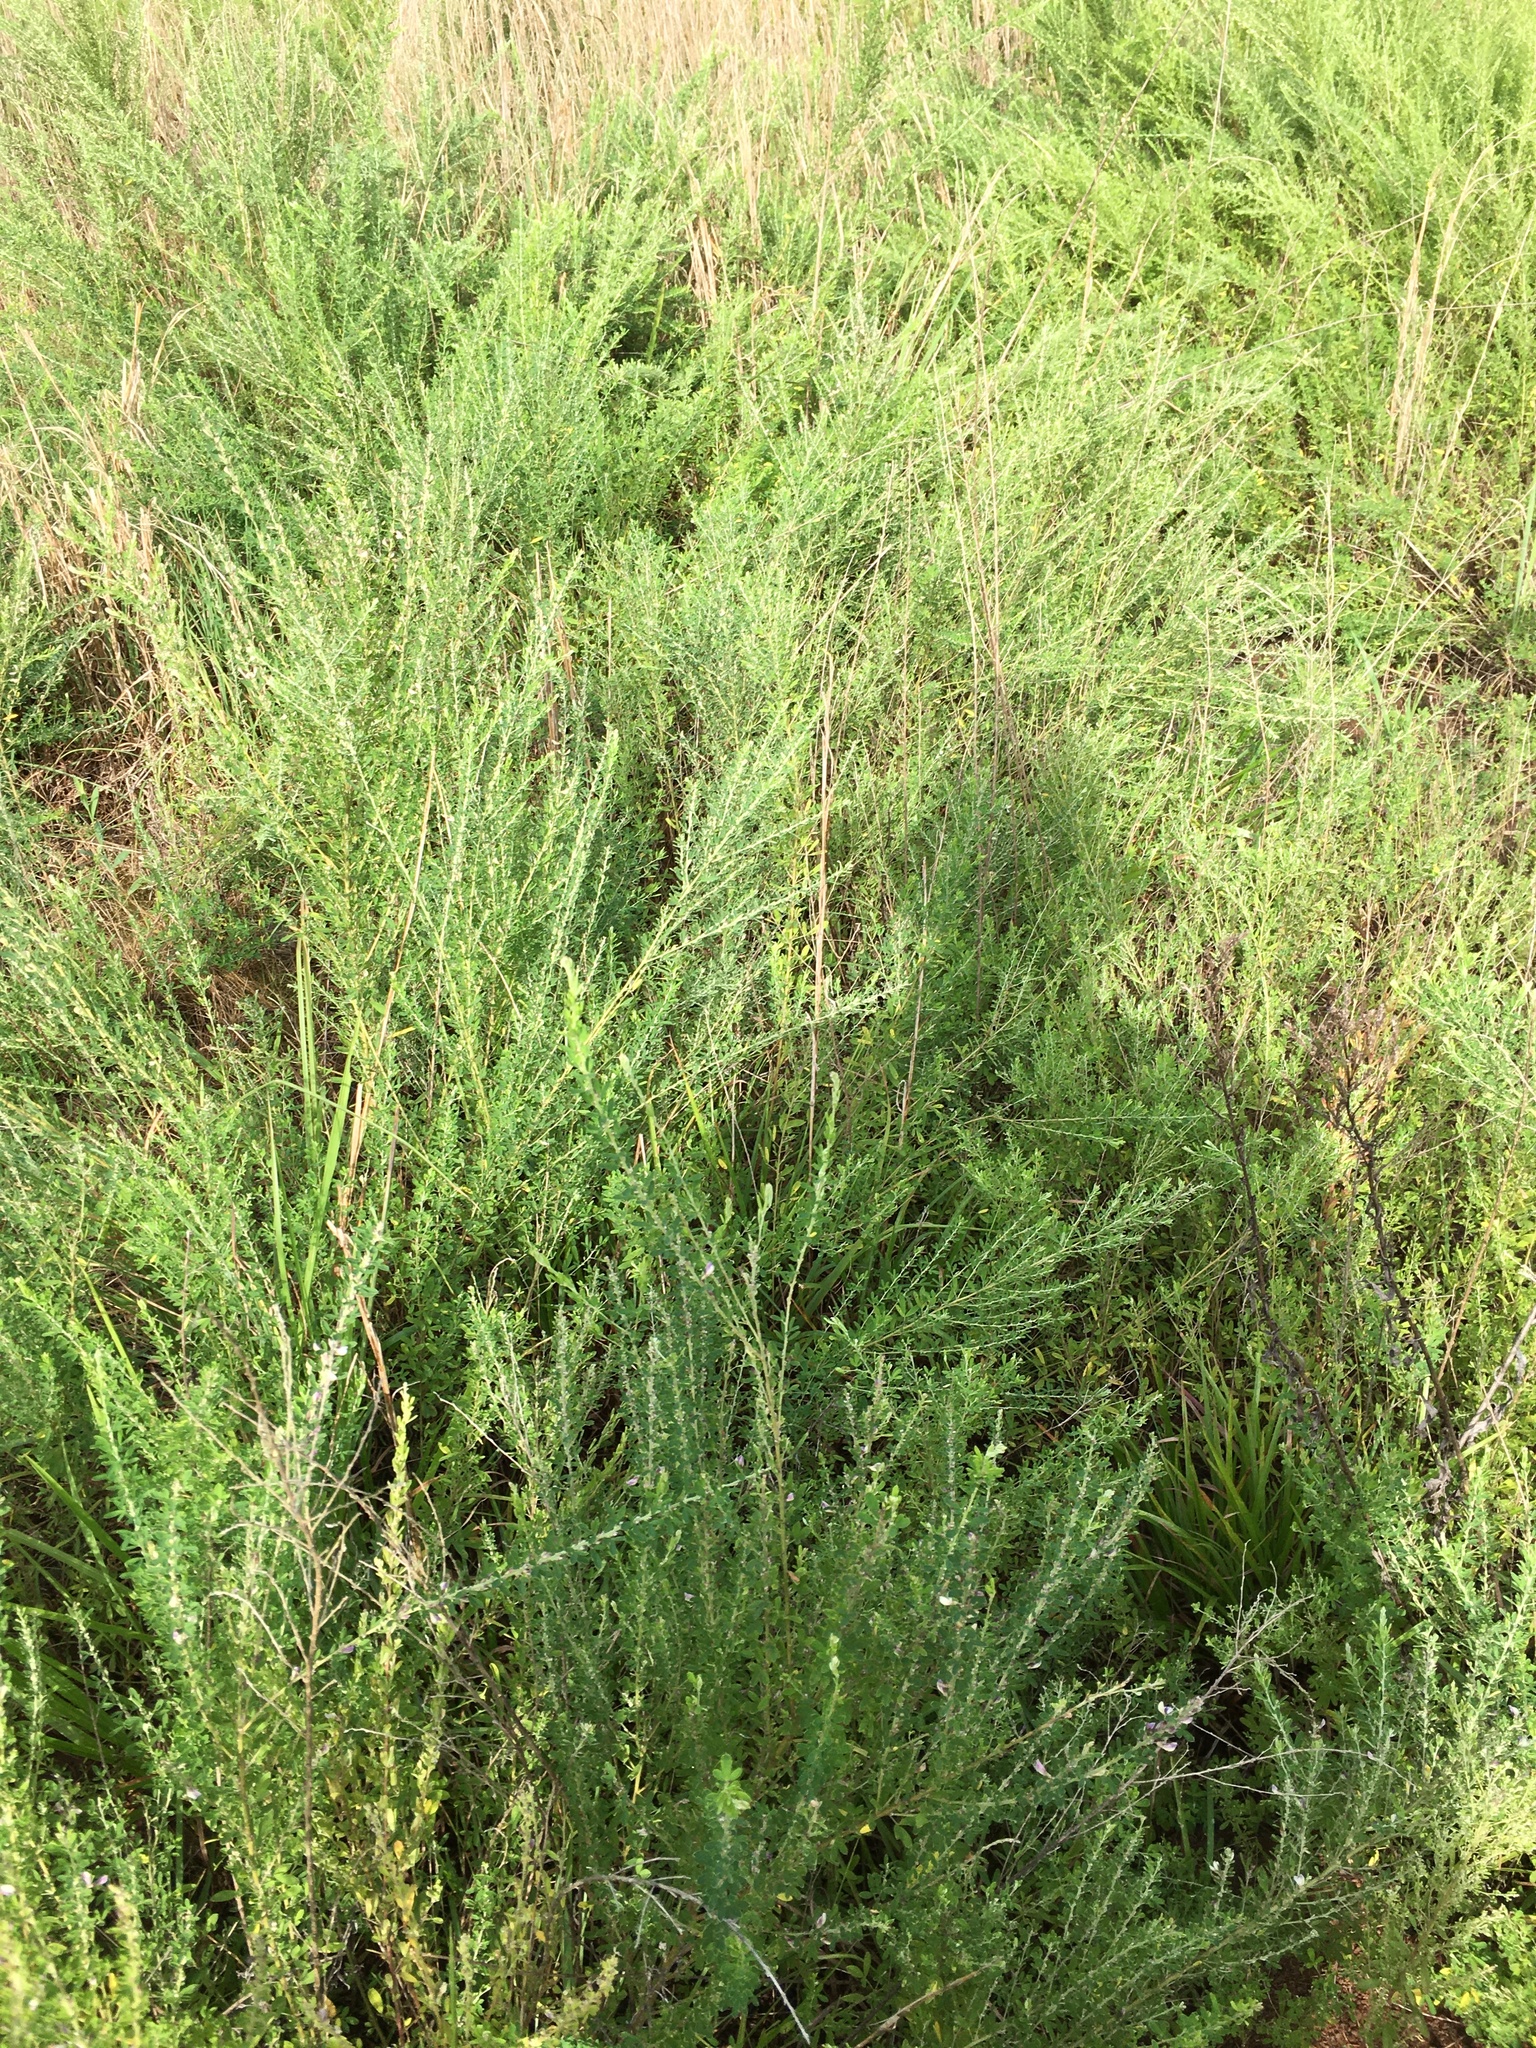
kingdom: Plantae
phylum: Tracheophyta
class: Magnoliopsida
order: Fabales
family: Fabaceae
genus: Lespedeza
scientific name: Lespedeza cuneata
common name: Chinese bush-clover
